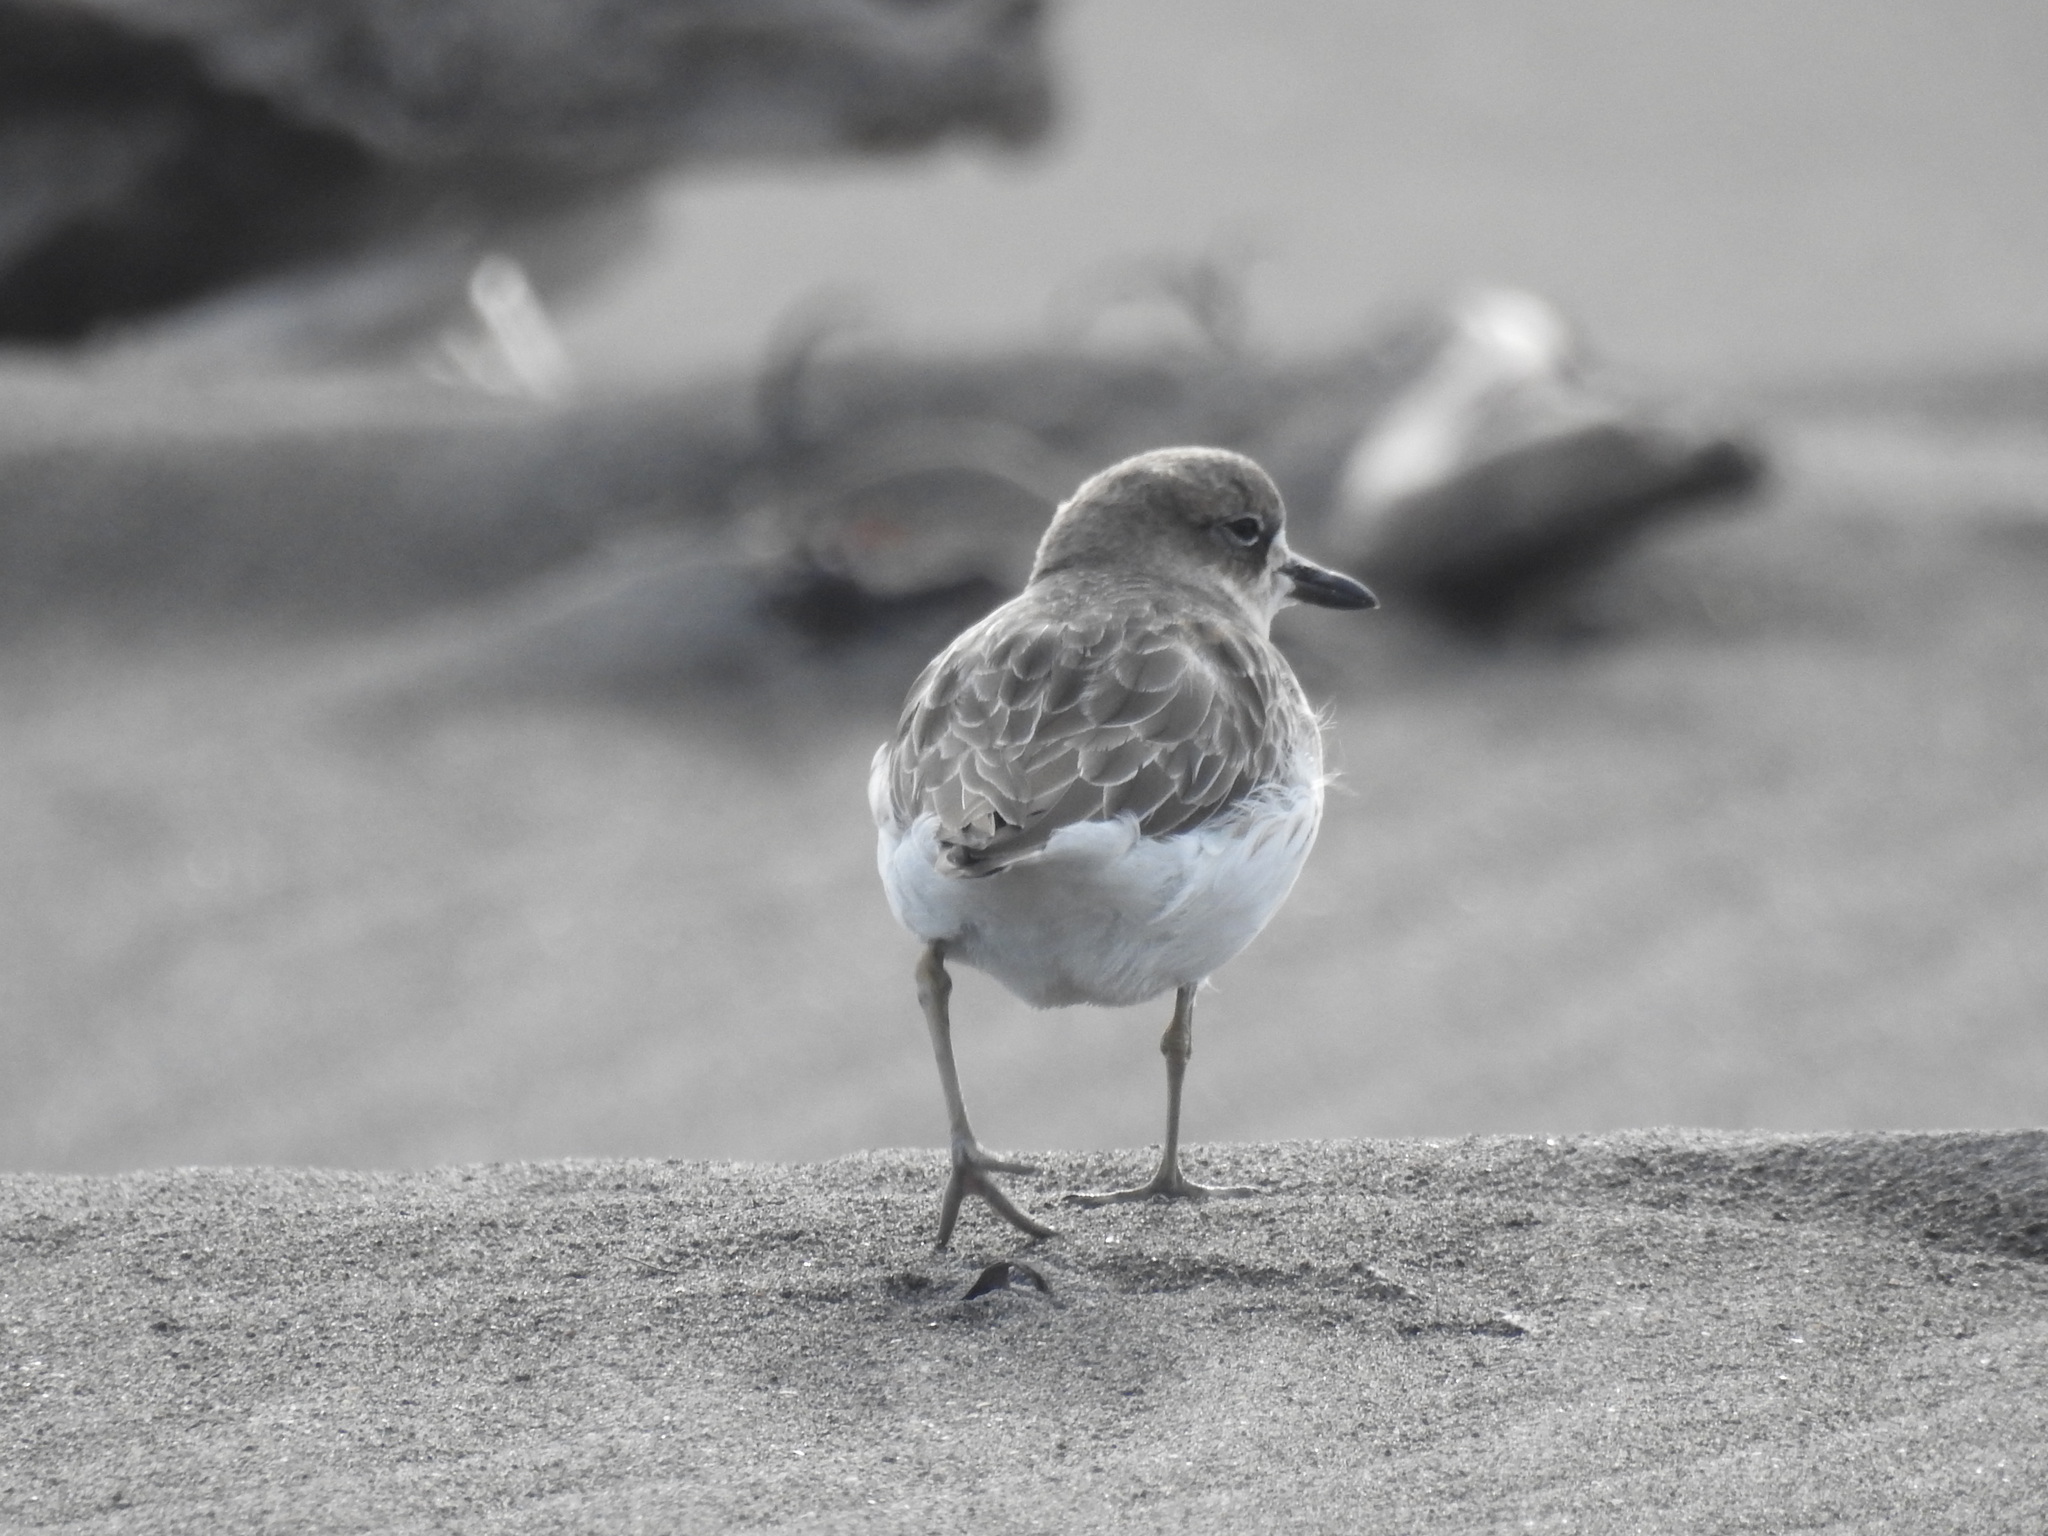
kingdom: Animalia
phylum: Chordata
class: Aves
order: Charadriiformes
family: Charadriidae
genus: Anarhynchus
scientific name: Anarhynchus
